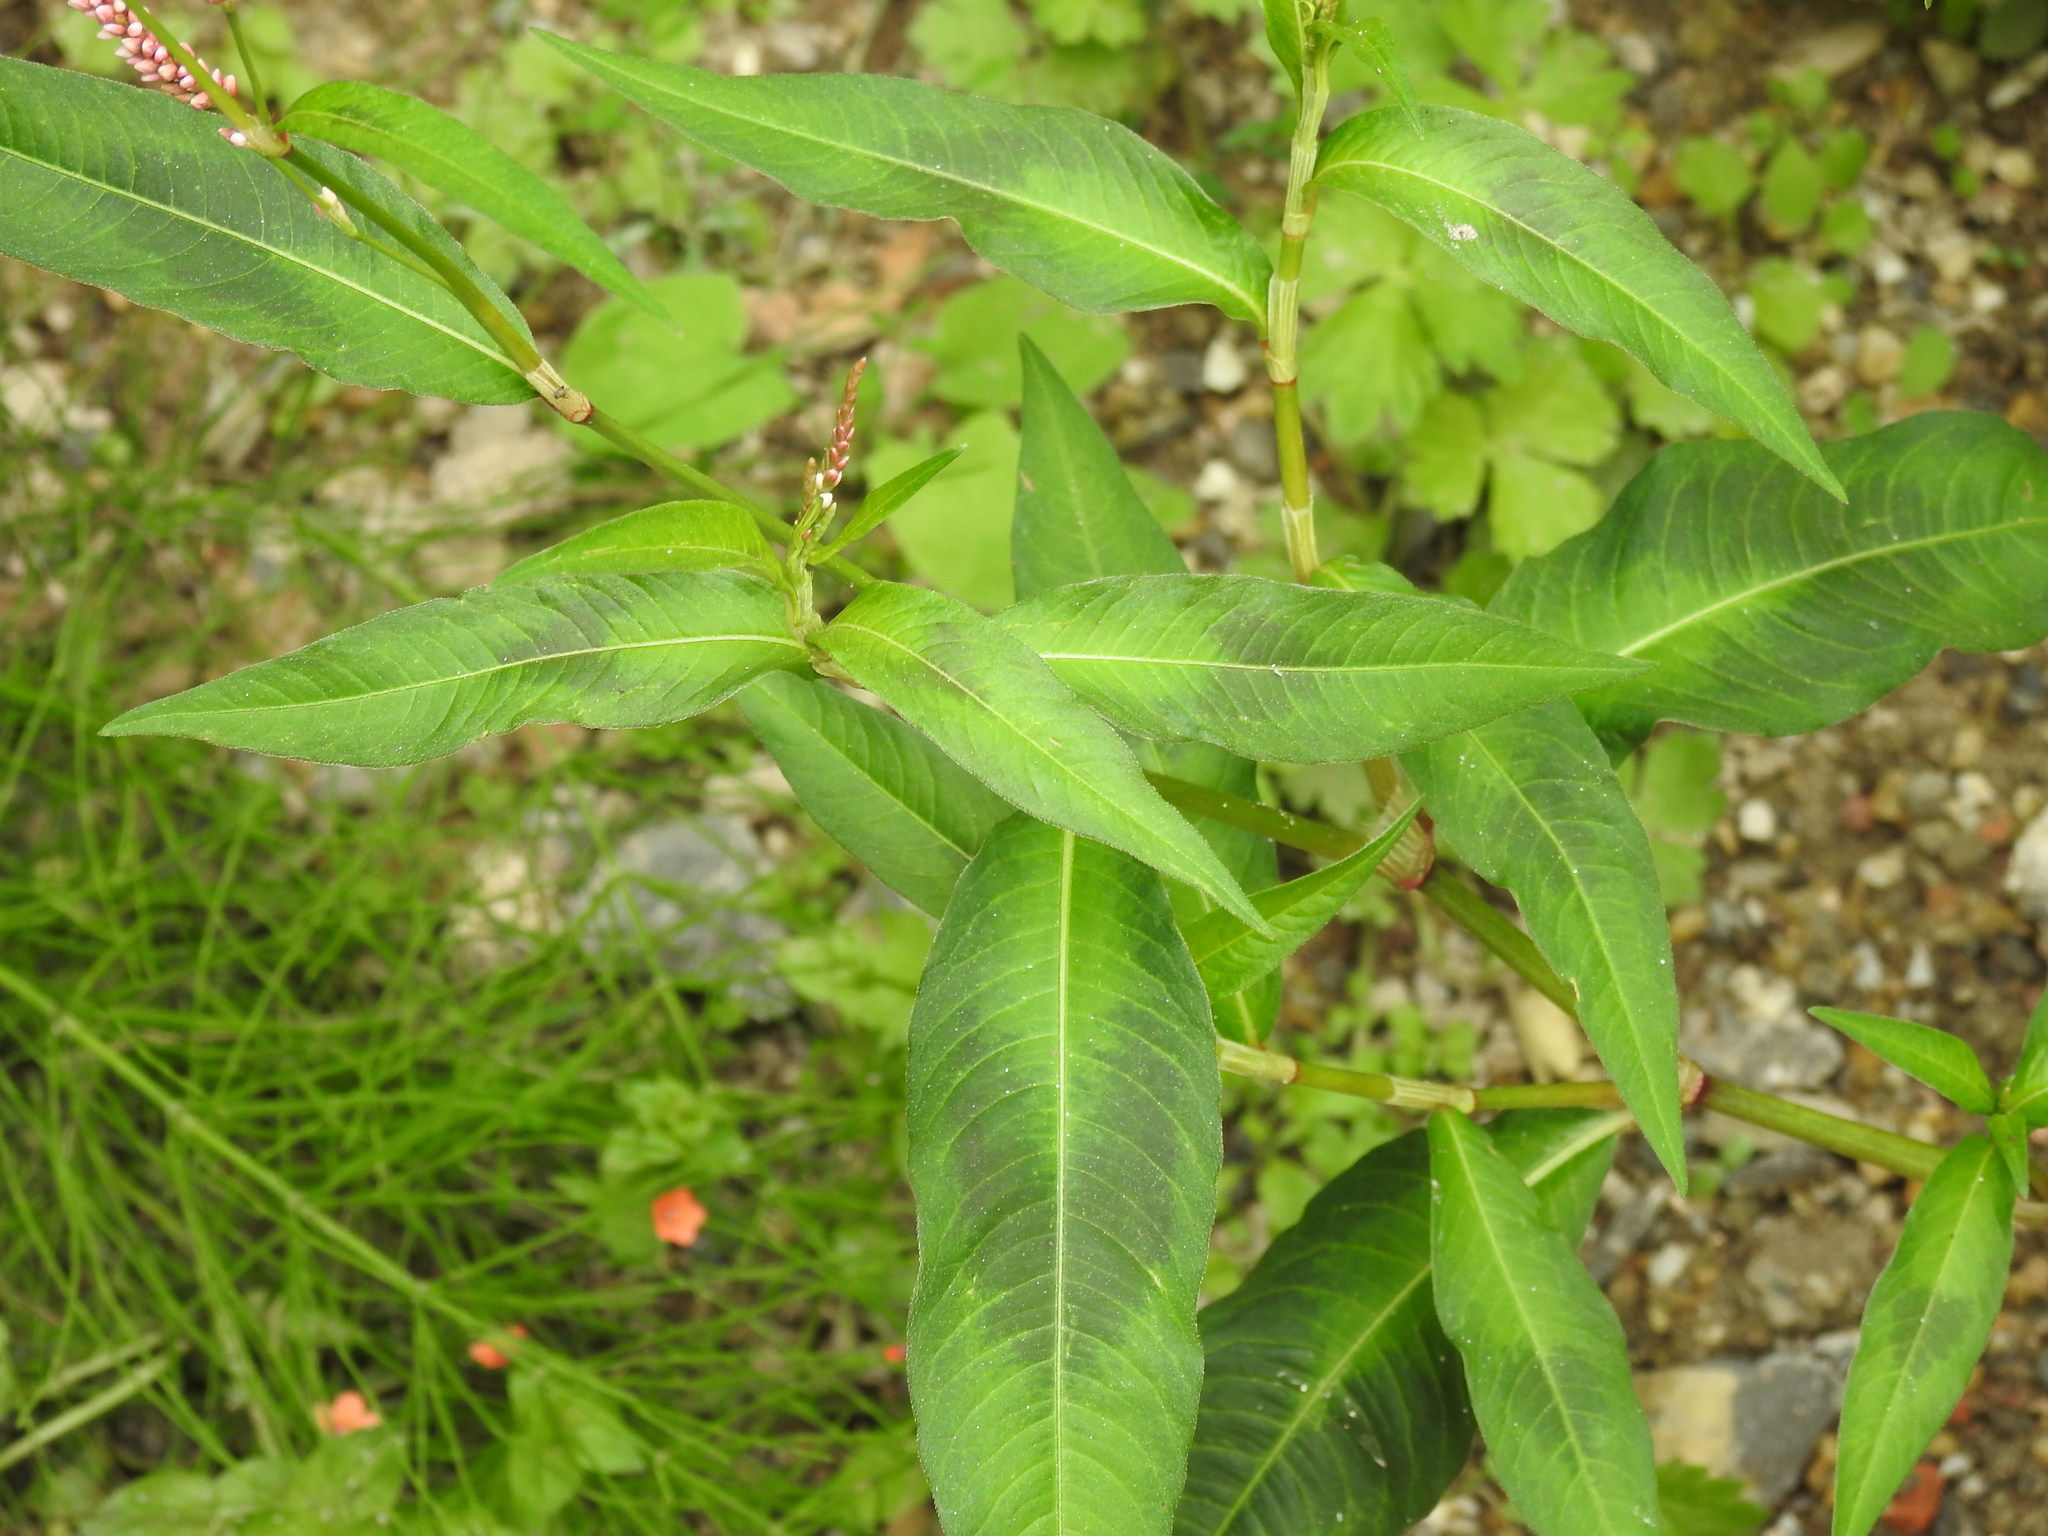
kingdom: Plantae
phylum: Tracheophyta
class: Magnoliopsida
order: Caryophyllales
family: Polygonaceae
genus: Persicaria
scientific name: Persicaria maculosa
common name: Redshank
